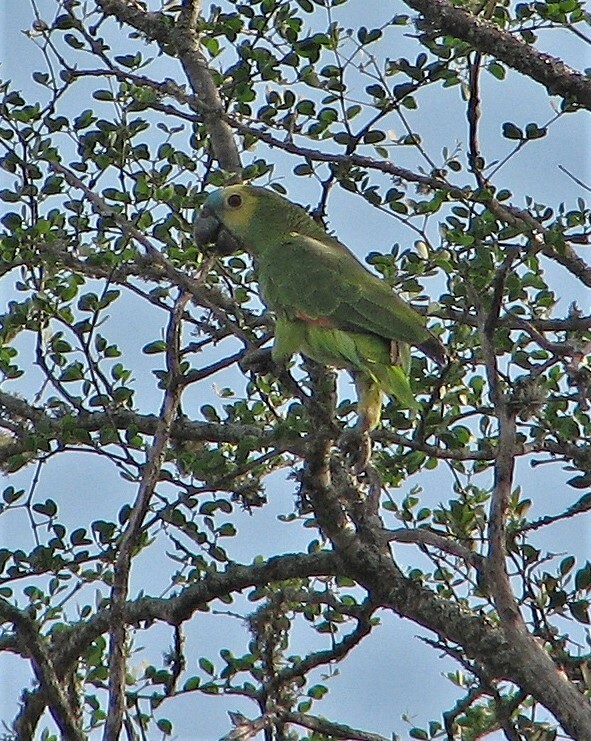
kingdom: Animalia
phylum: Chordata
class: Aves
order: Psittaciformes
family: Psittacidae
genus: Amazona
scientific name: Amazona aestiva
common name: Turquoise-fronted amazon
